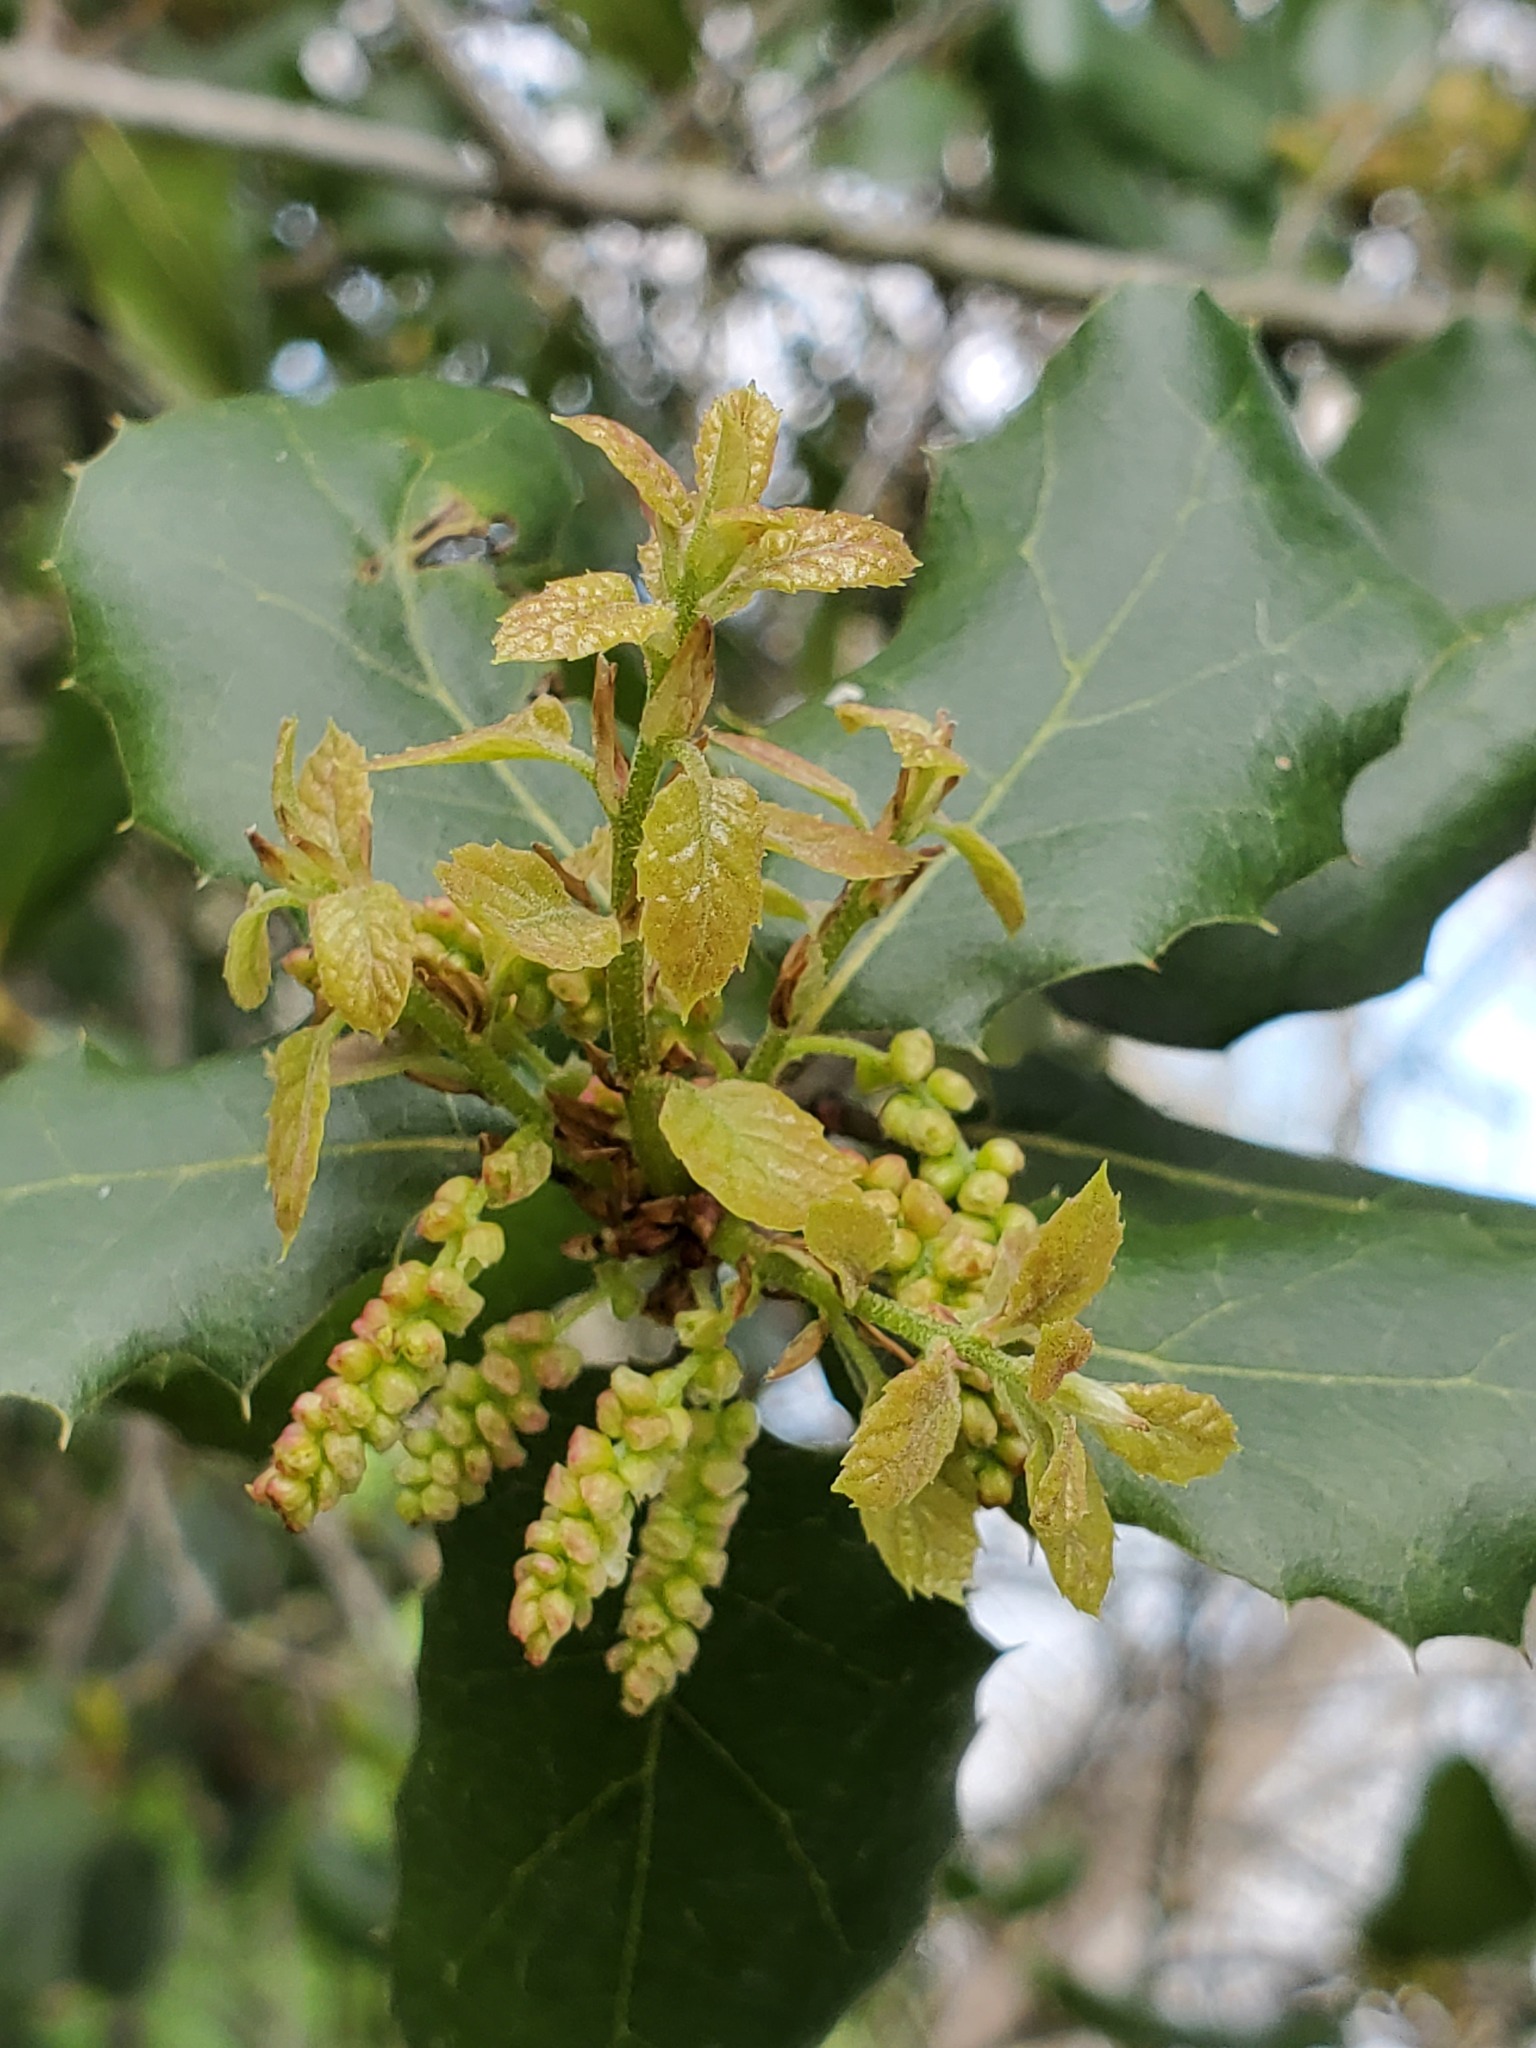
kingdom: Plantae
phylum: Tracheophyta
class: Magnoliopsida
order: Fagales
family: Fagaceae
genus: Quercus
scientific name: Quercus agrifolia
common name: California live oak
